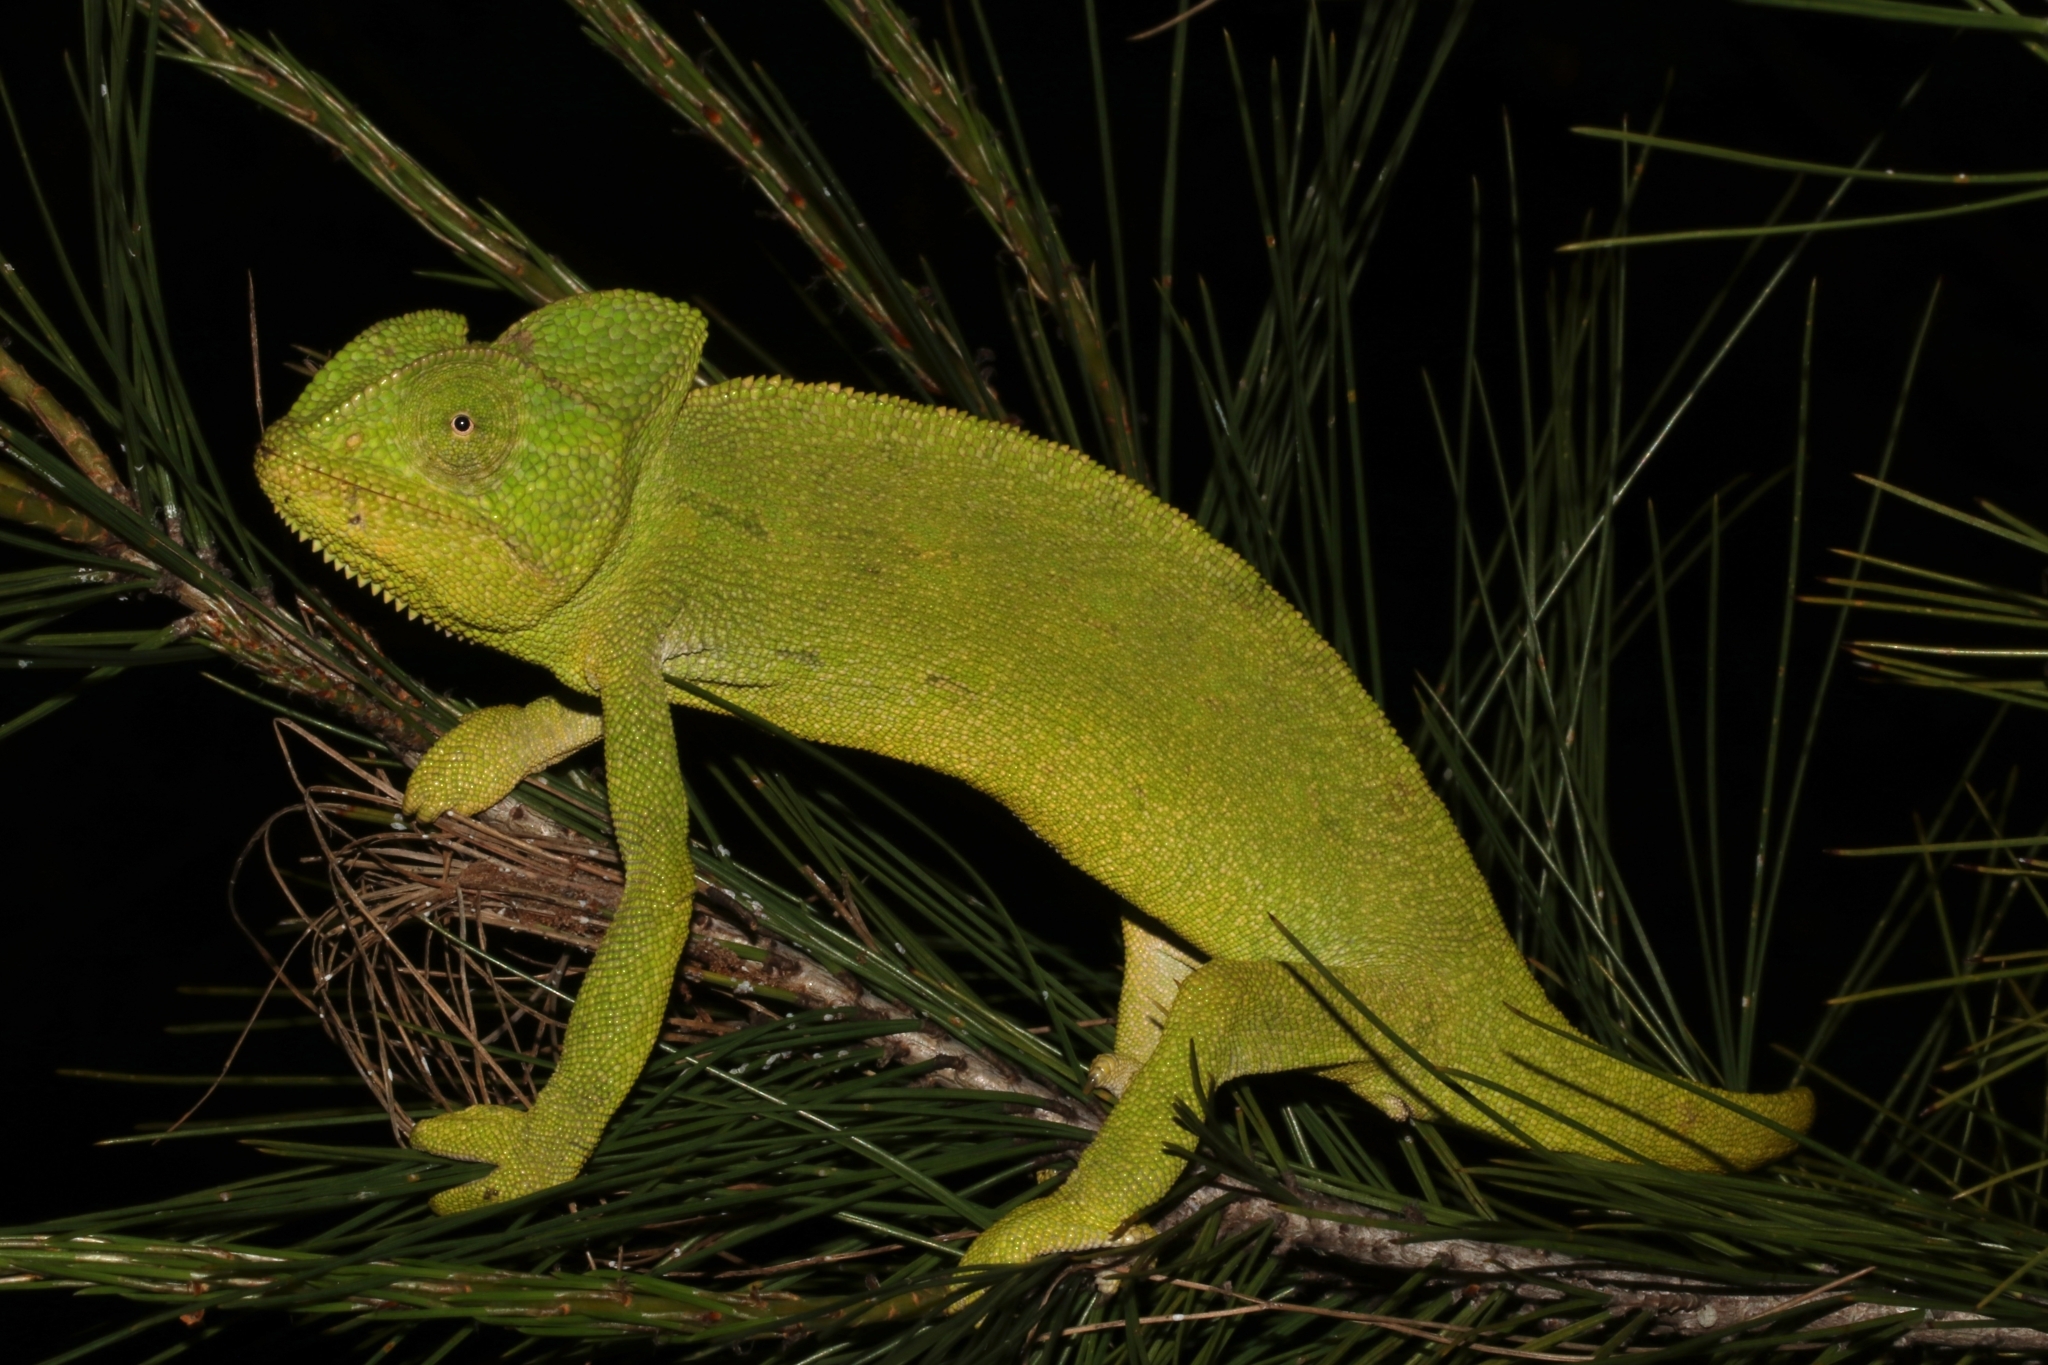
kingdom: Animalia
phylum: Chordata
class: Squamata
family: Chamaeleonidae
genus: Chamaeleo
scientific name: Chamaeleo africanus
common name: African chameleon
